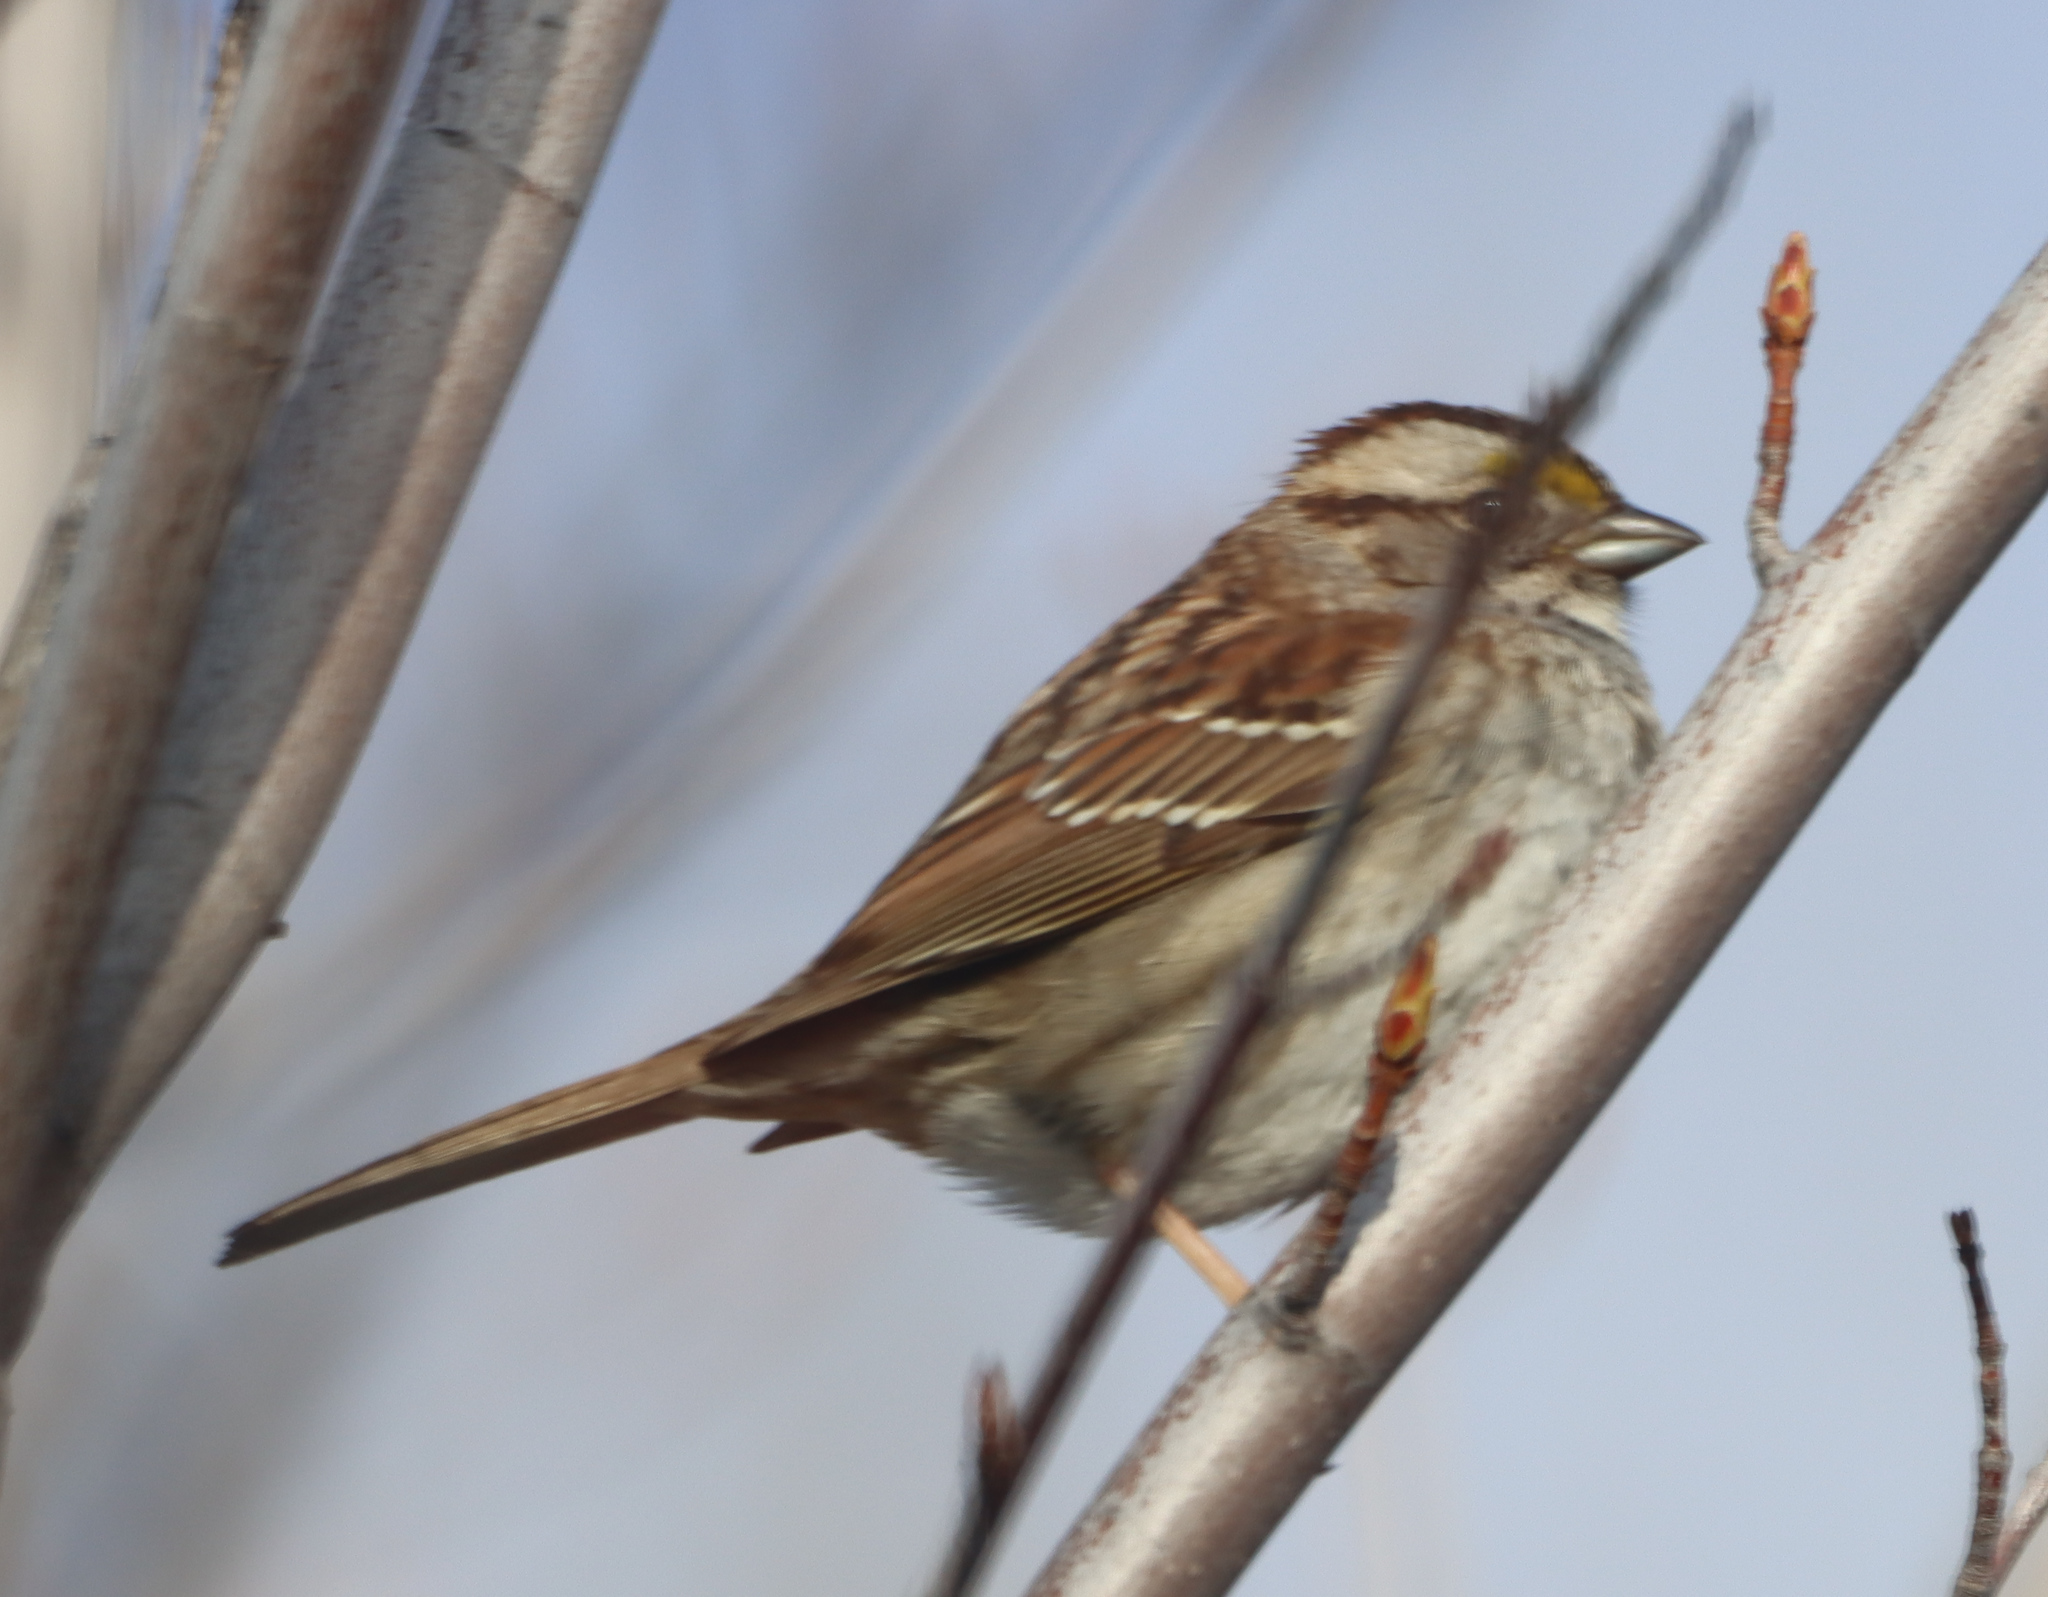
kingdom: Animalia
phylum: Chordata
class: Aves
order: Passeriformes
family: Passerellidae
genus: Zonotrichia
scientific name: Zonotrichia albicollis
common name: White-throated sparrow
